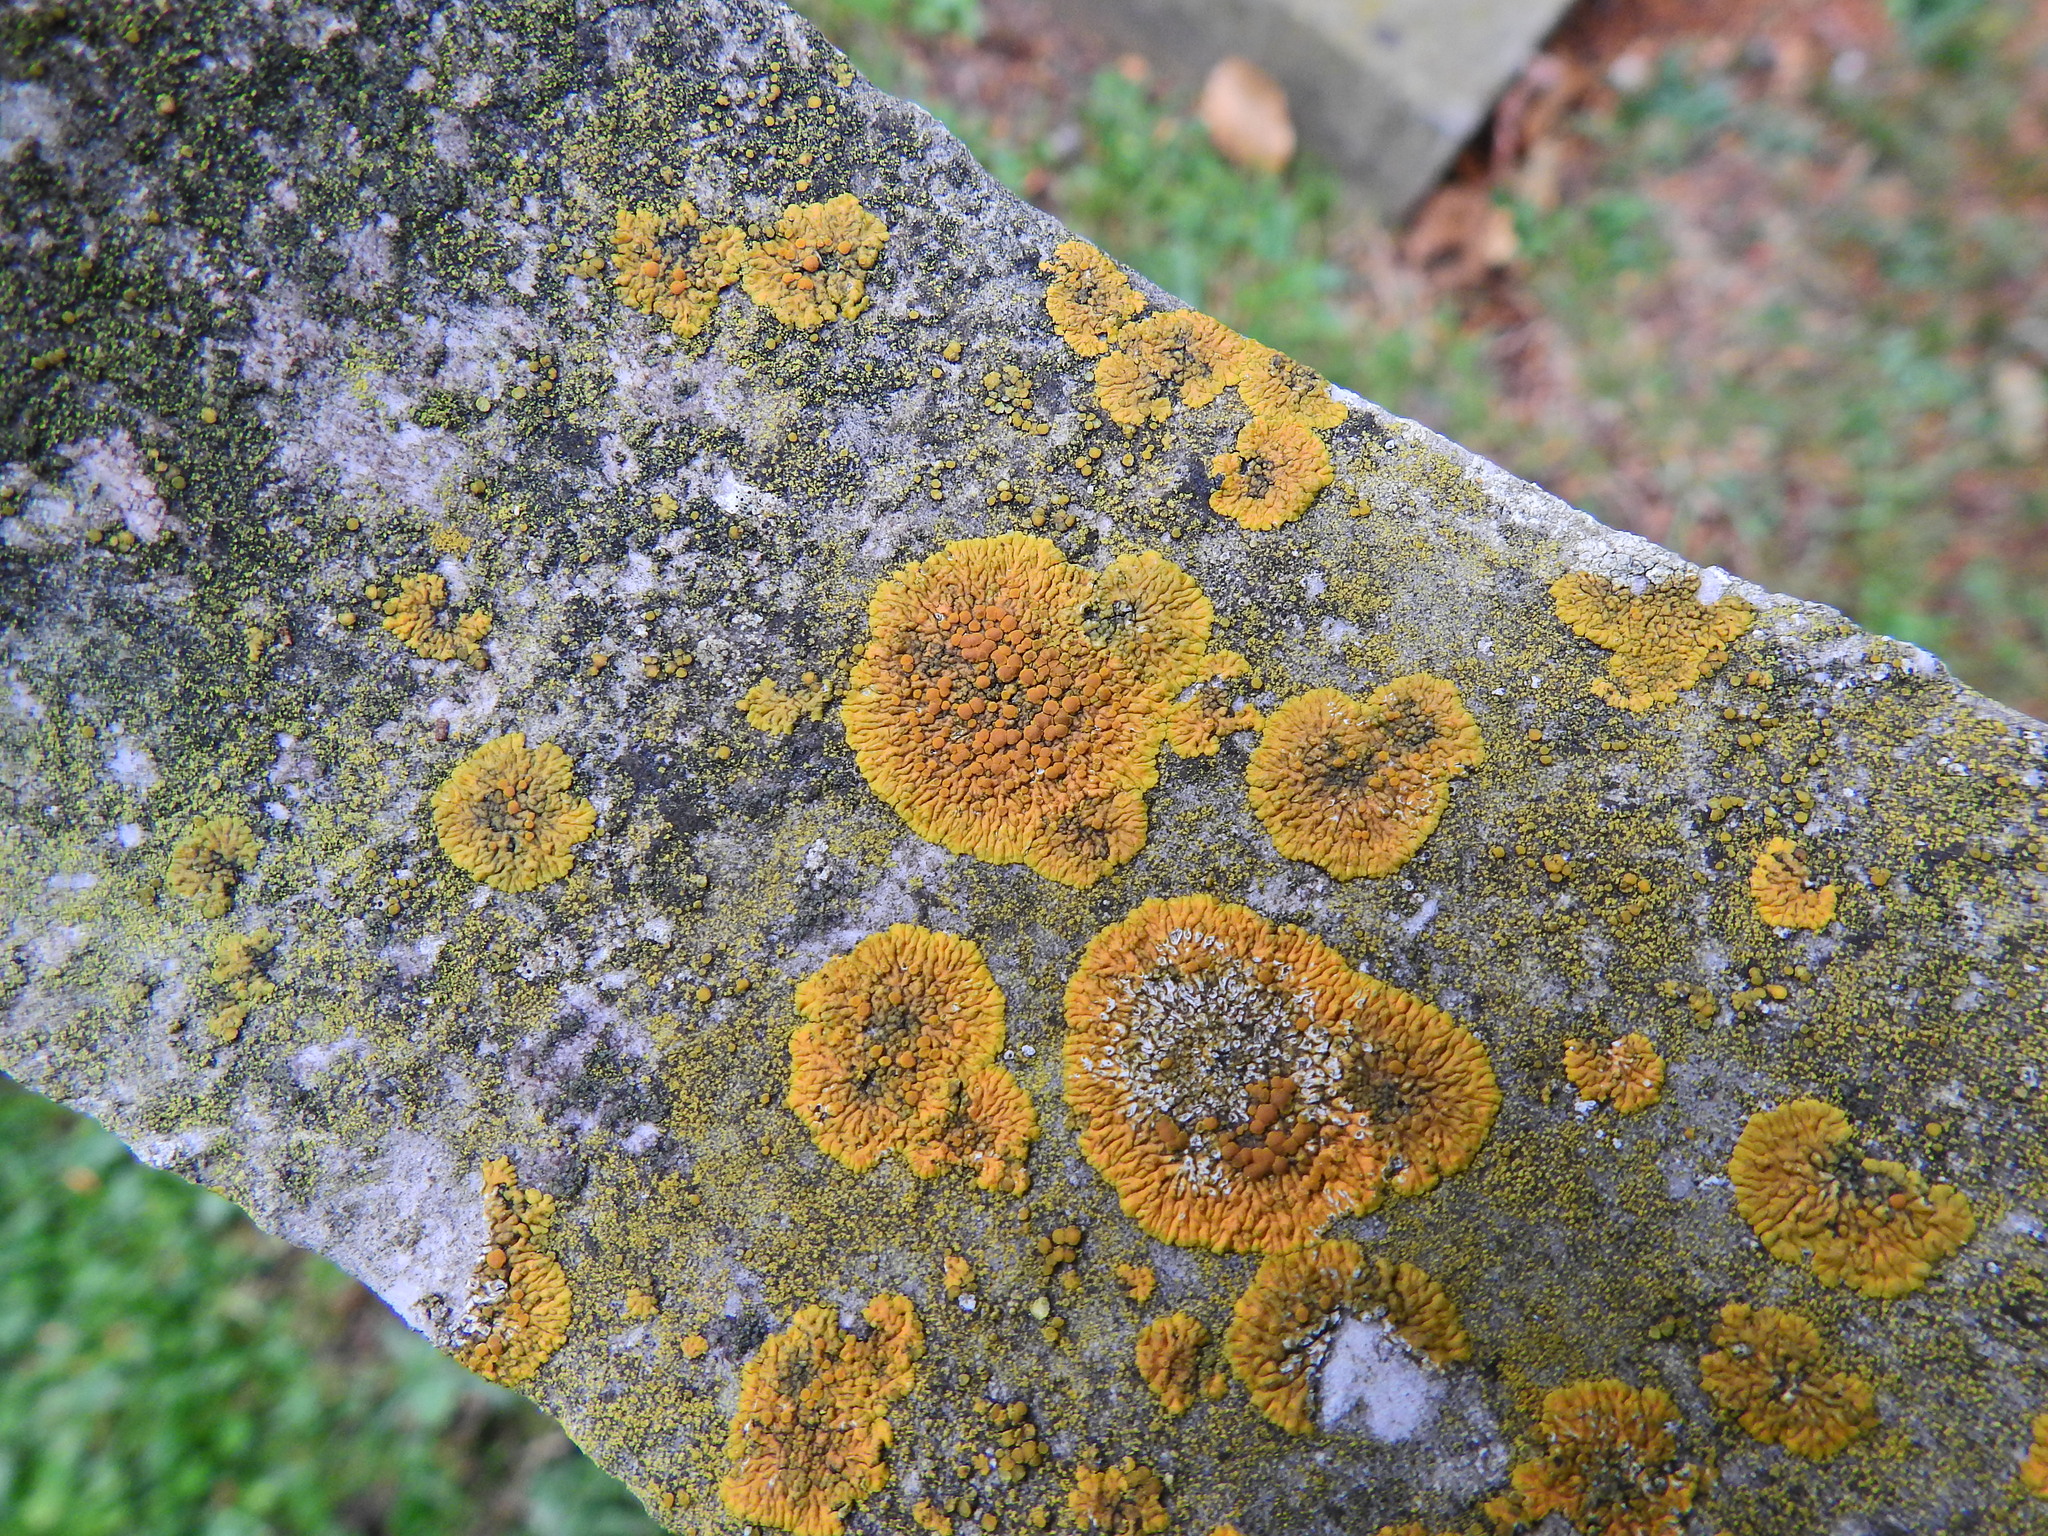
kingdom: Fungi
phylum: Ascomycota
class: Lecanoromycetes
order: Teloschistales
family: Teloschistaceae
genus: Variospora
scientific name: Variospora flavescens
